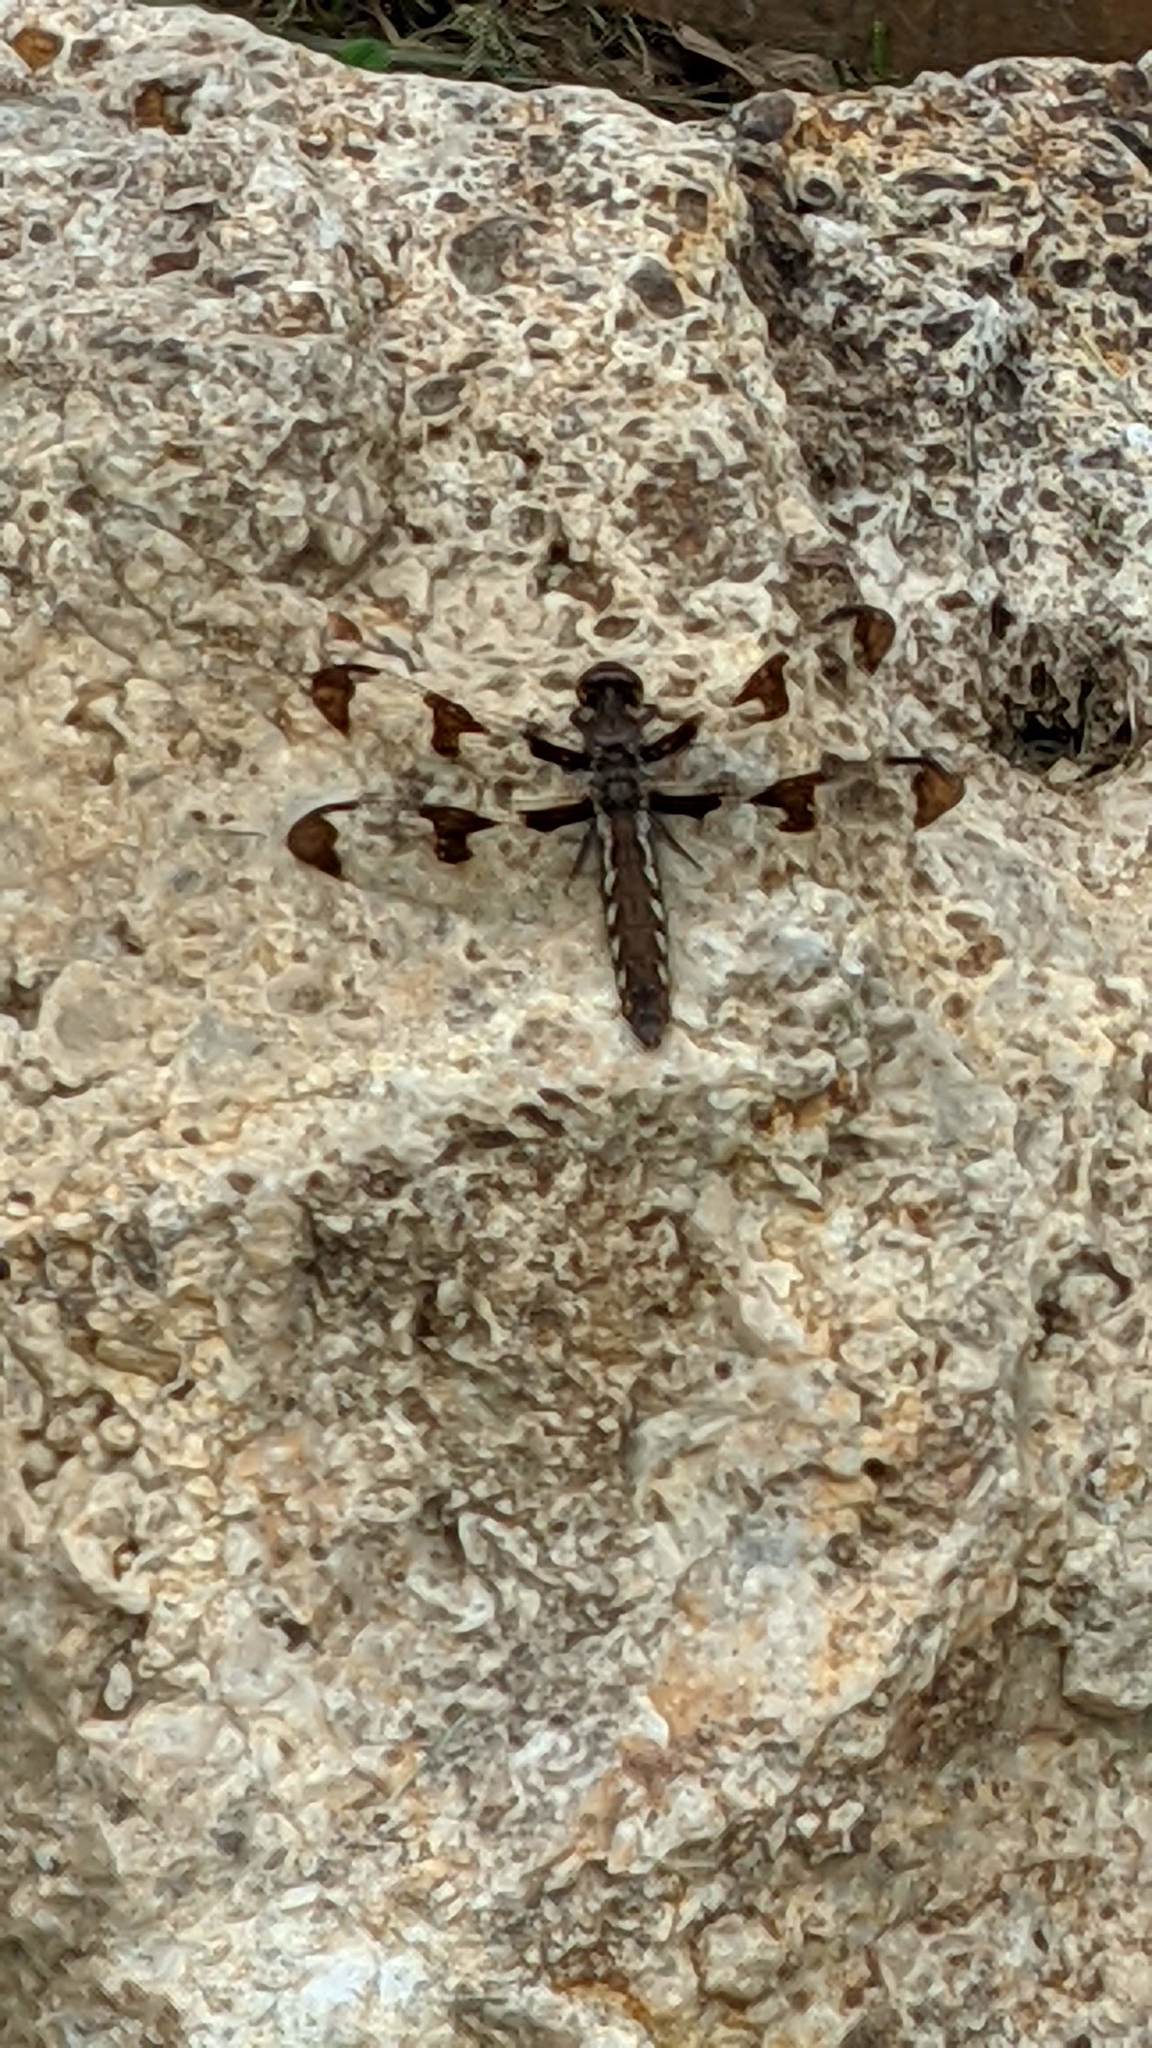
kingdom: Animalia
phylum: Arthropoda
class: Insecta
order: Odonata
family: Libellulidae
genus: Plathemis
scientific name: Plathemis lydia
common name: Common whitetail
